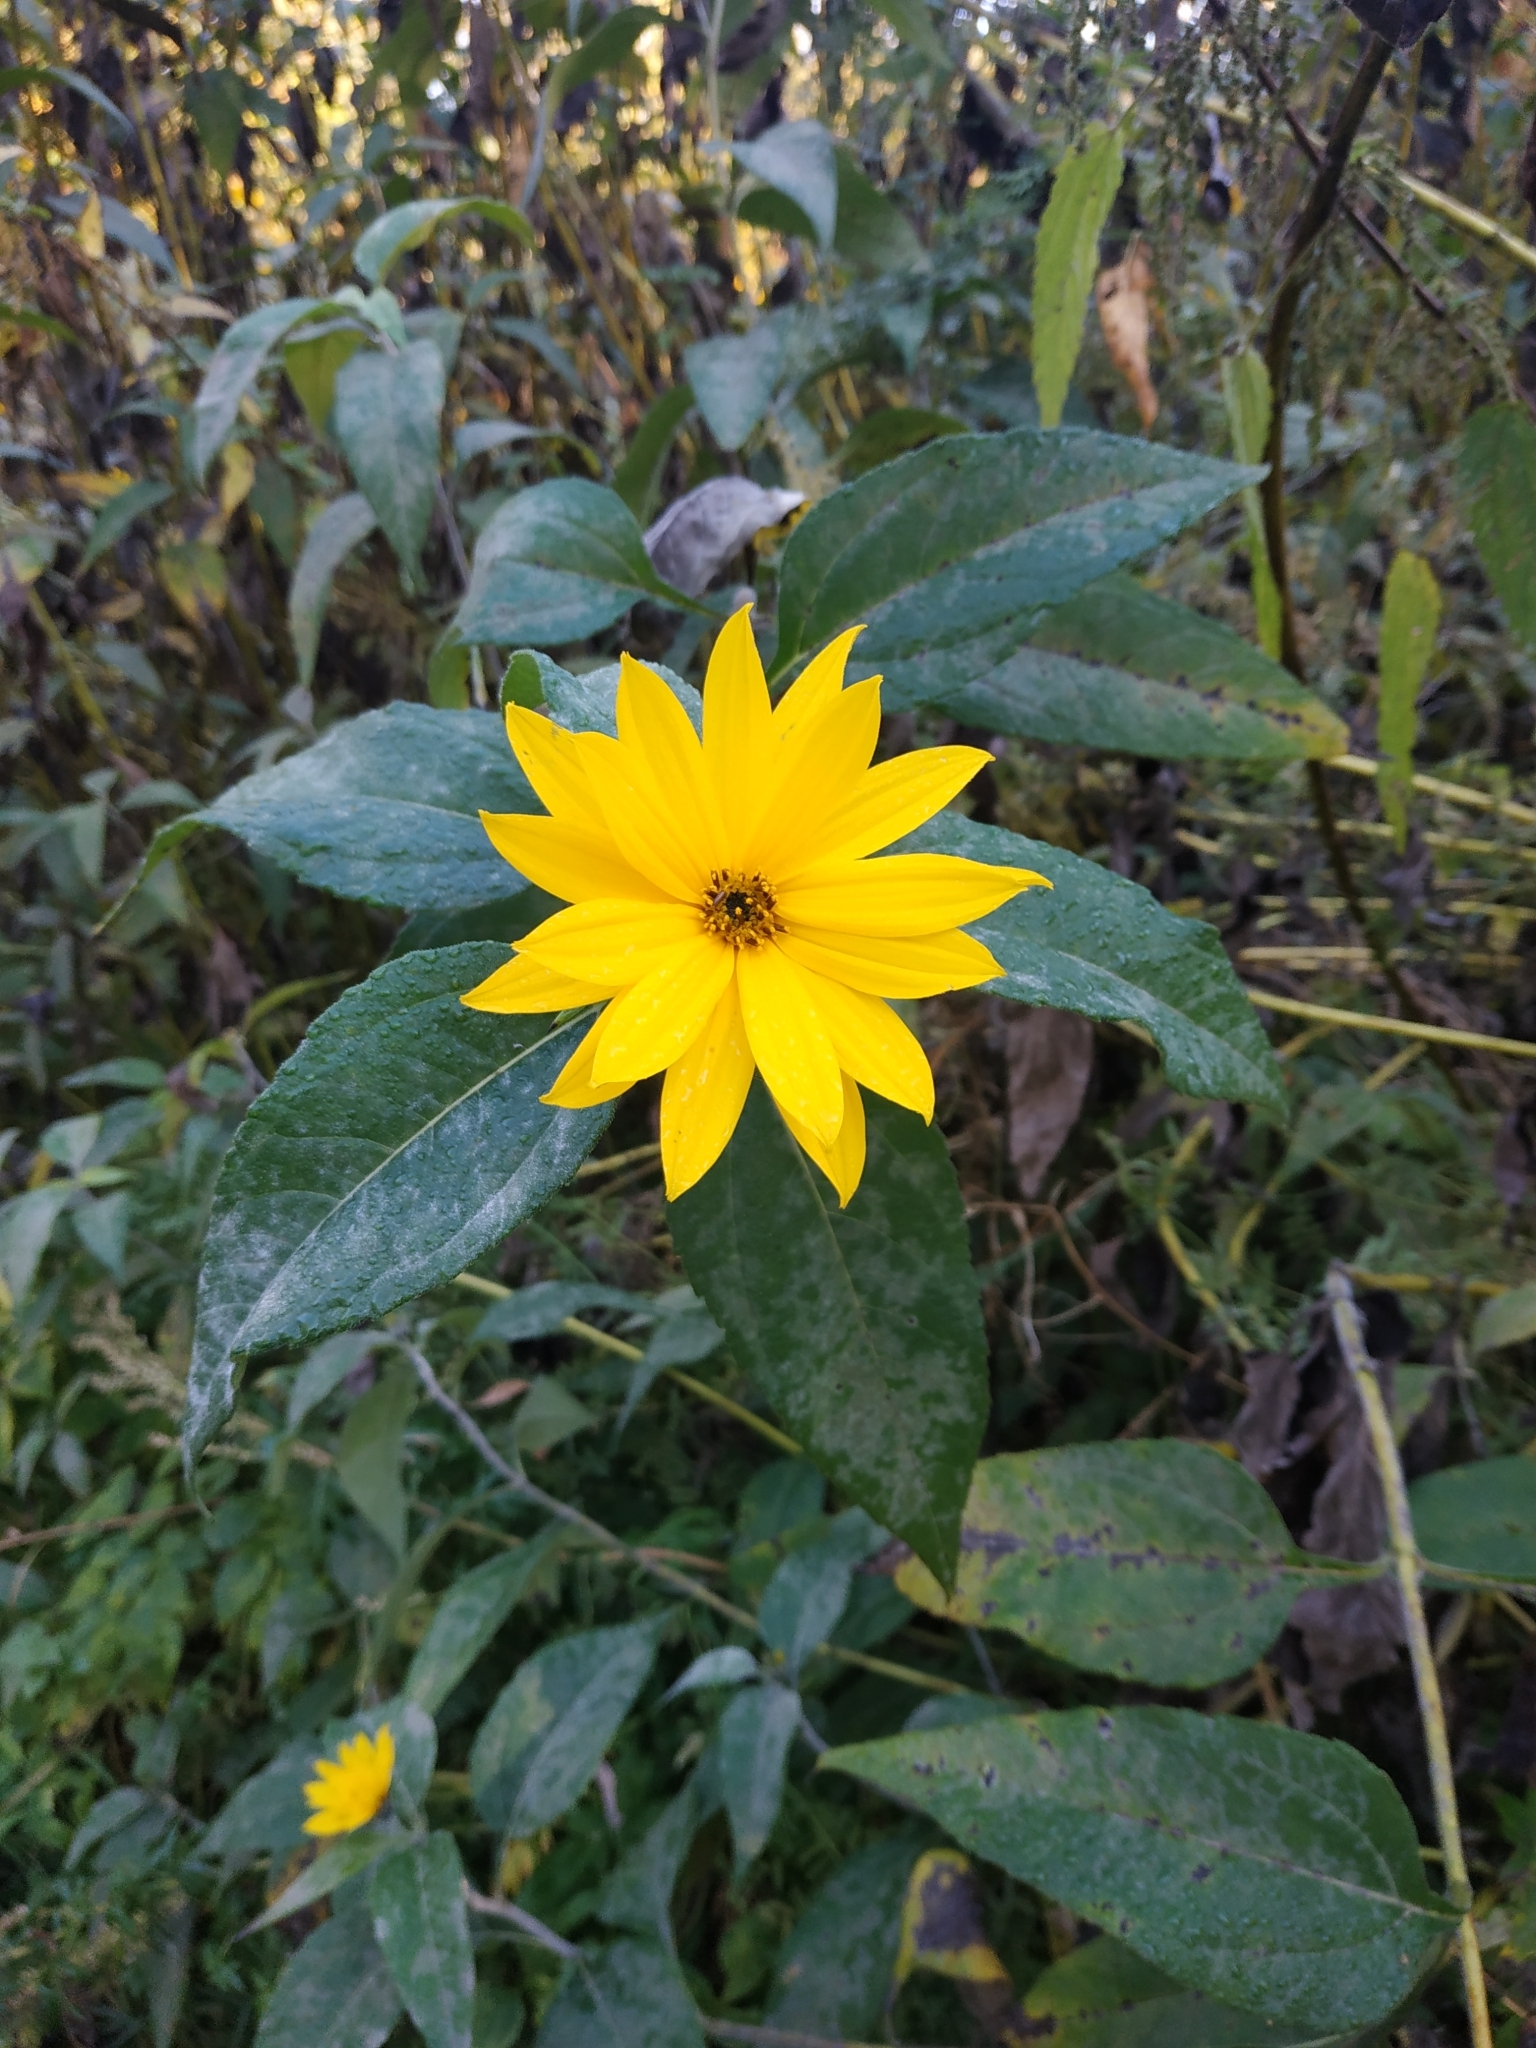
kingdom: Plantae
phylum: Tracheophyta
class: Magnoliopsida
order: Asterales
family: Asteraceae
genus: Helianthus
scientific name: Helianthus tuberosus
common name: Jerusalem artichoke
